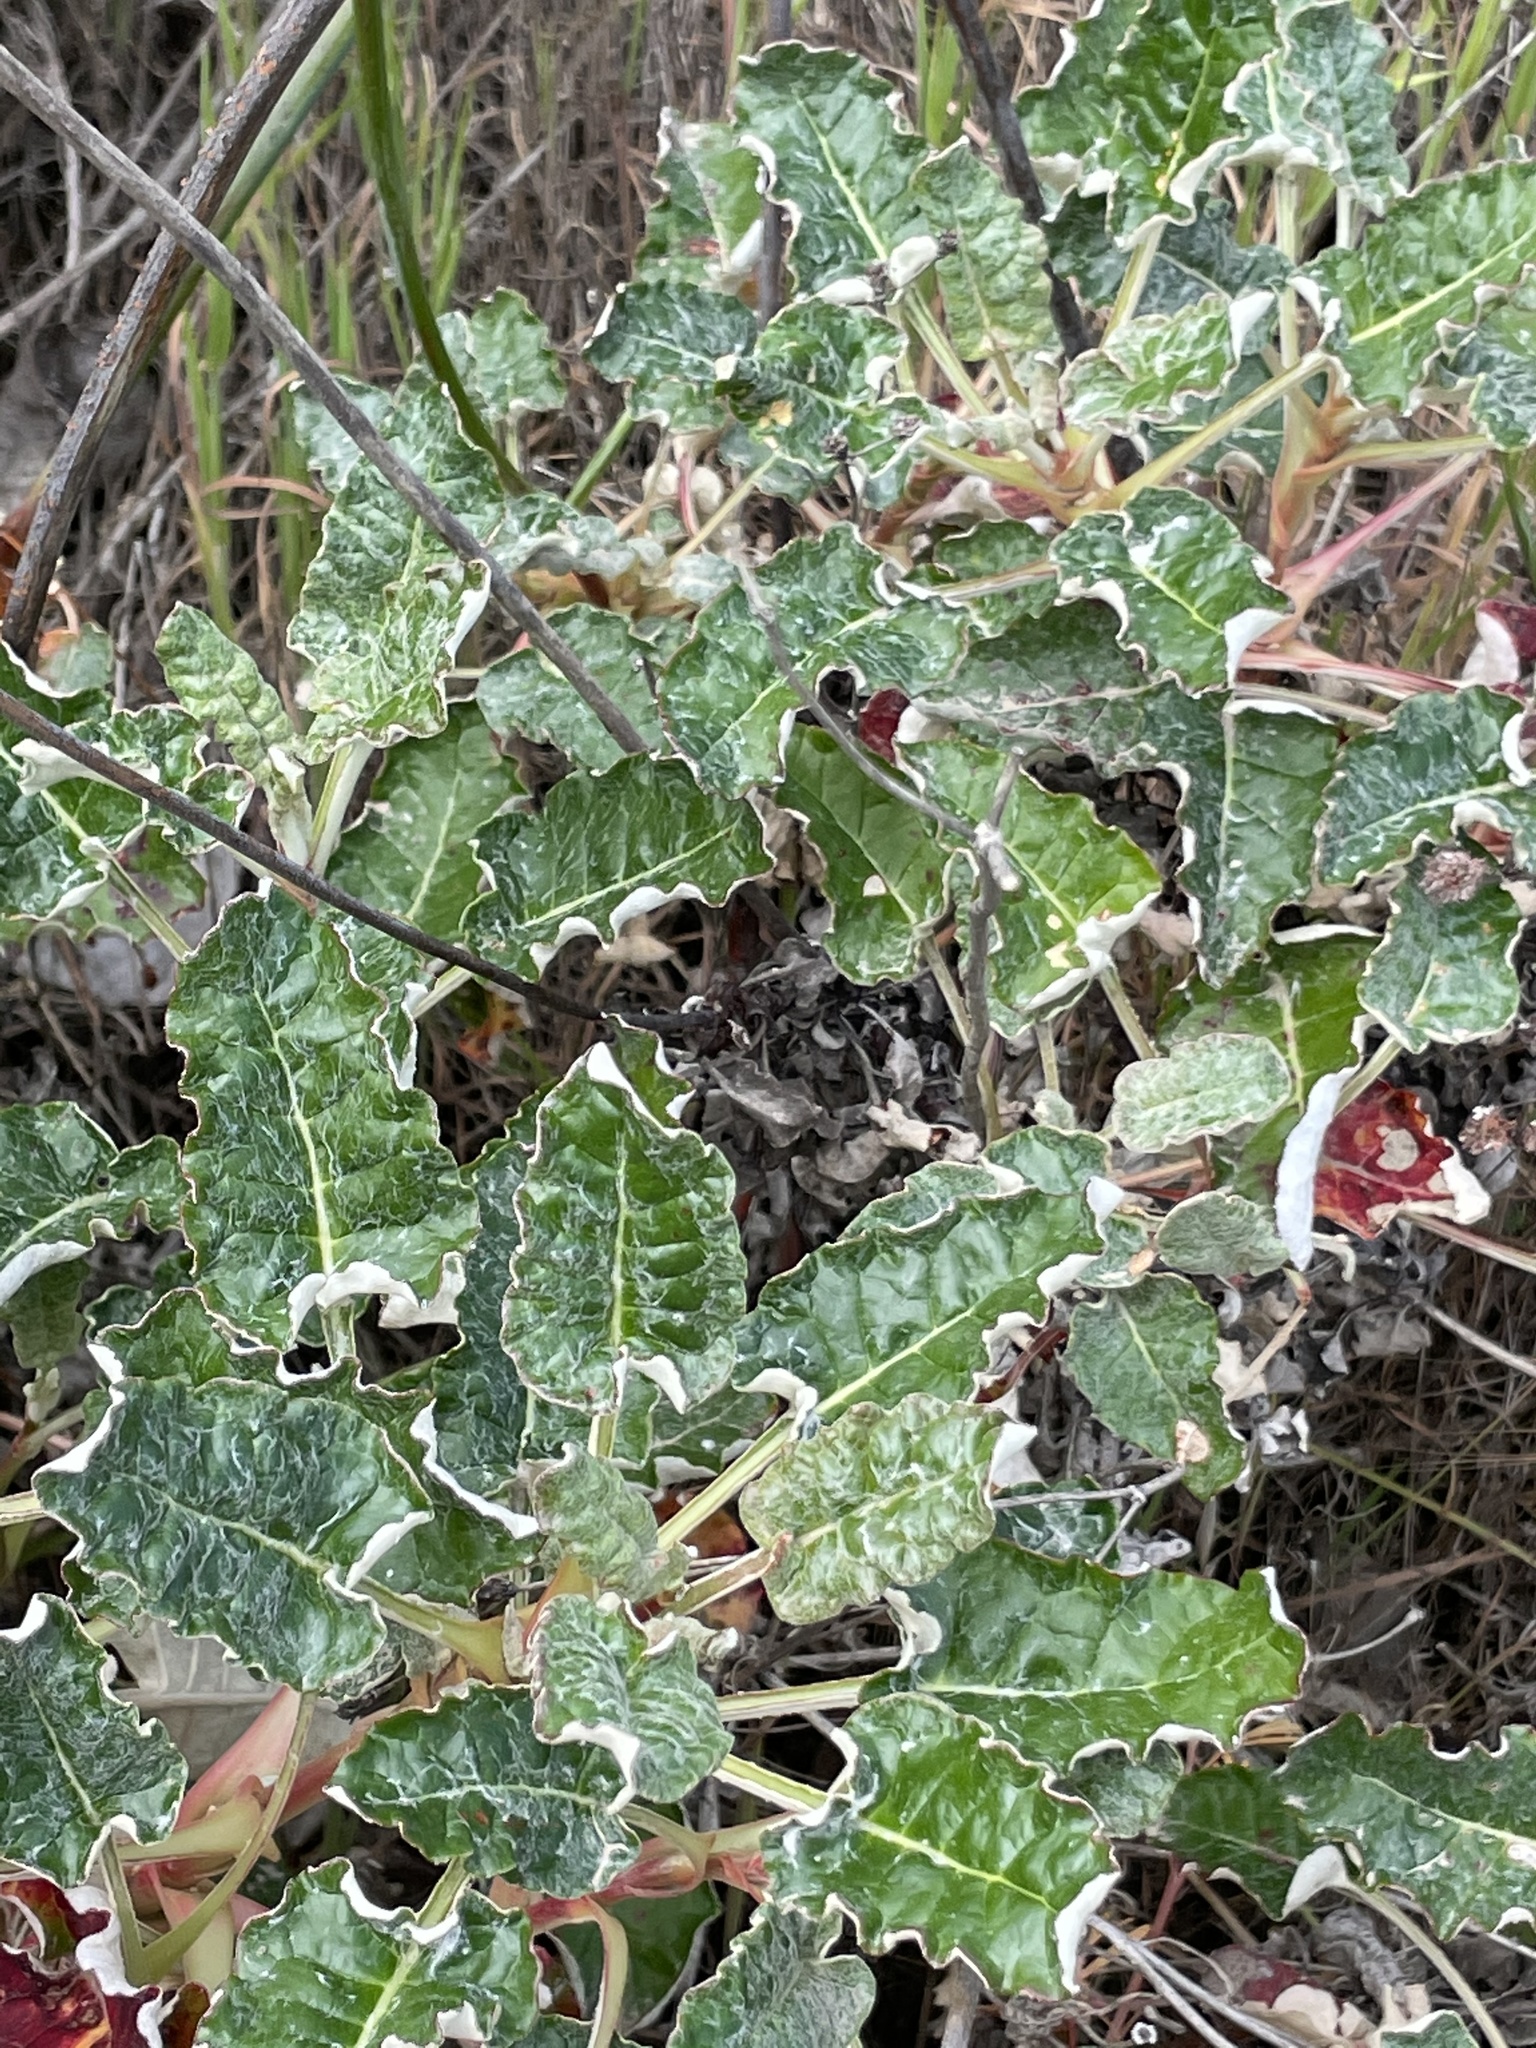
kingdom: Plantae
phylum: Tracheophyta
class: Magnoliopsida
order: Caryophyllales
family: Polygonaceae
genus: Eriogonum
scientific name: Eriogonum grande
